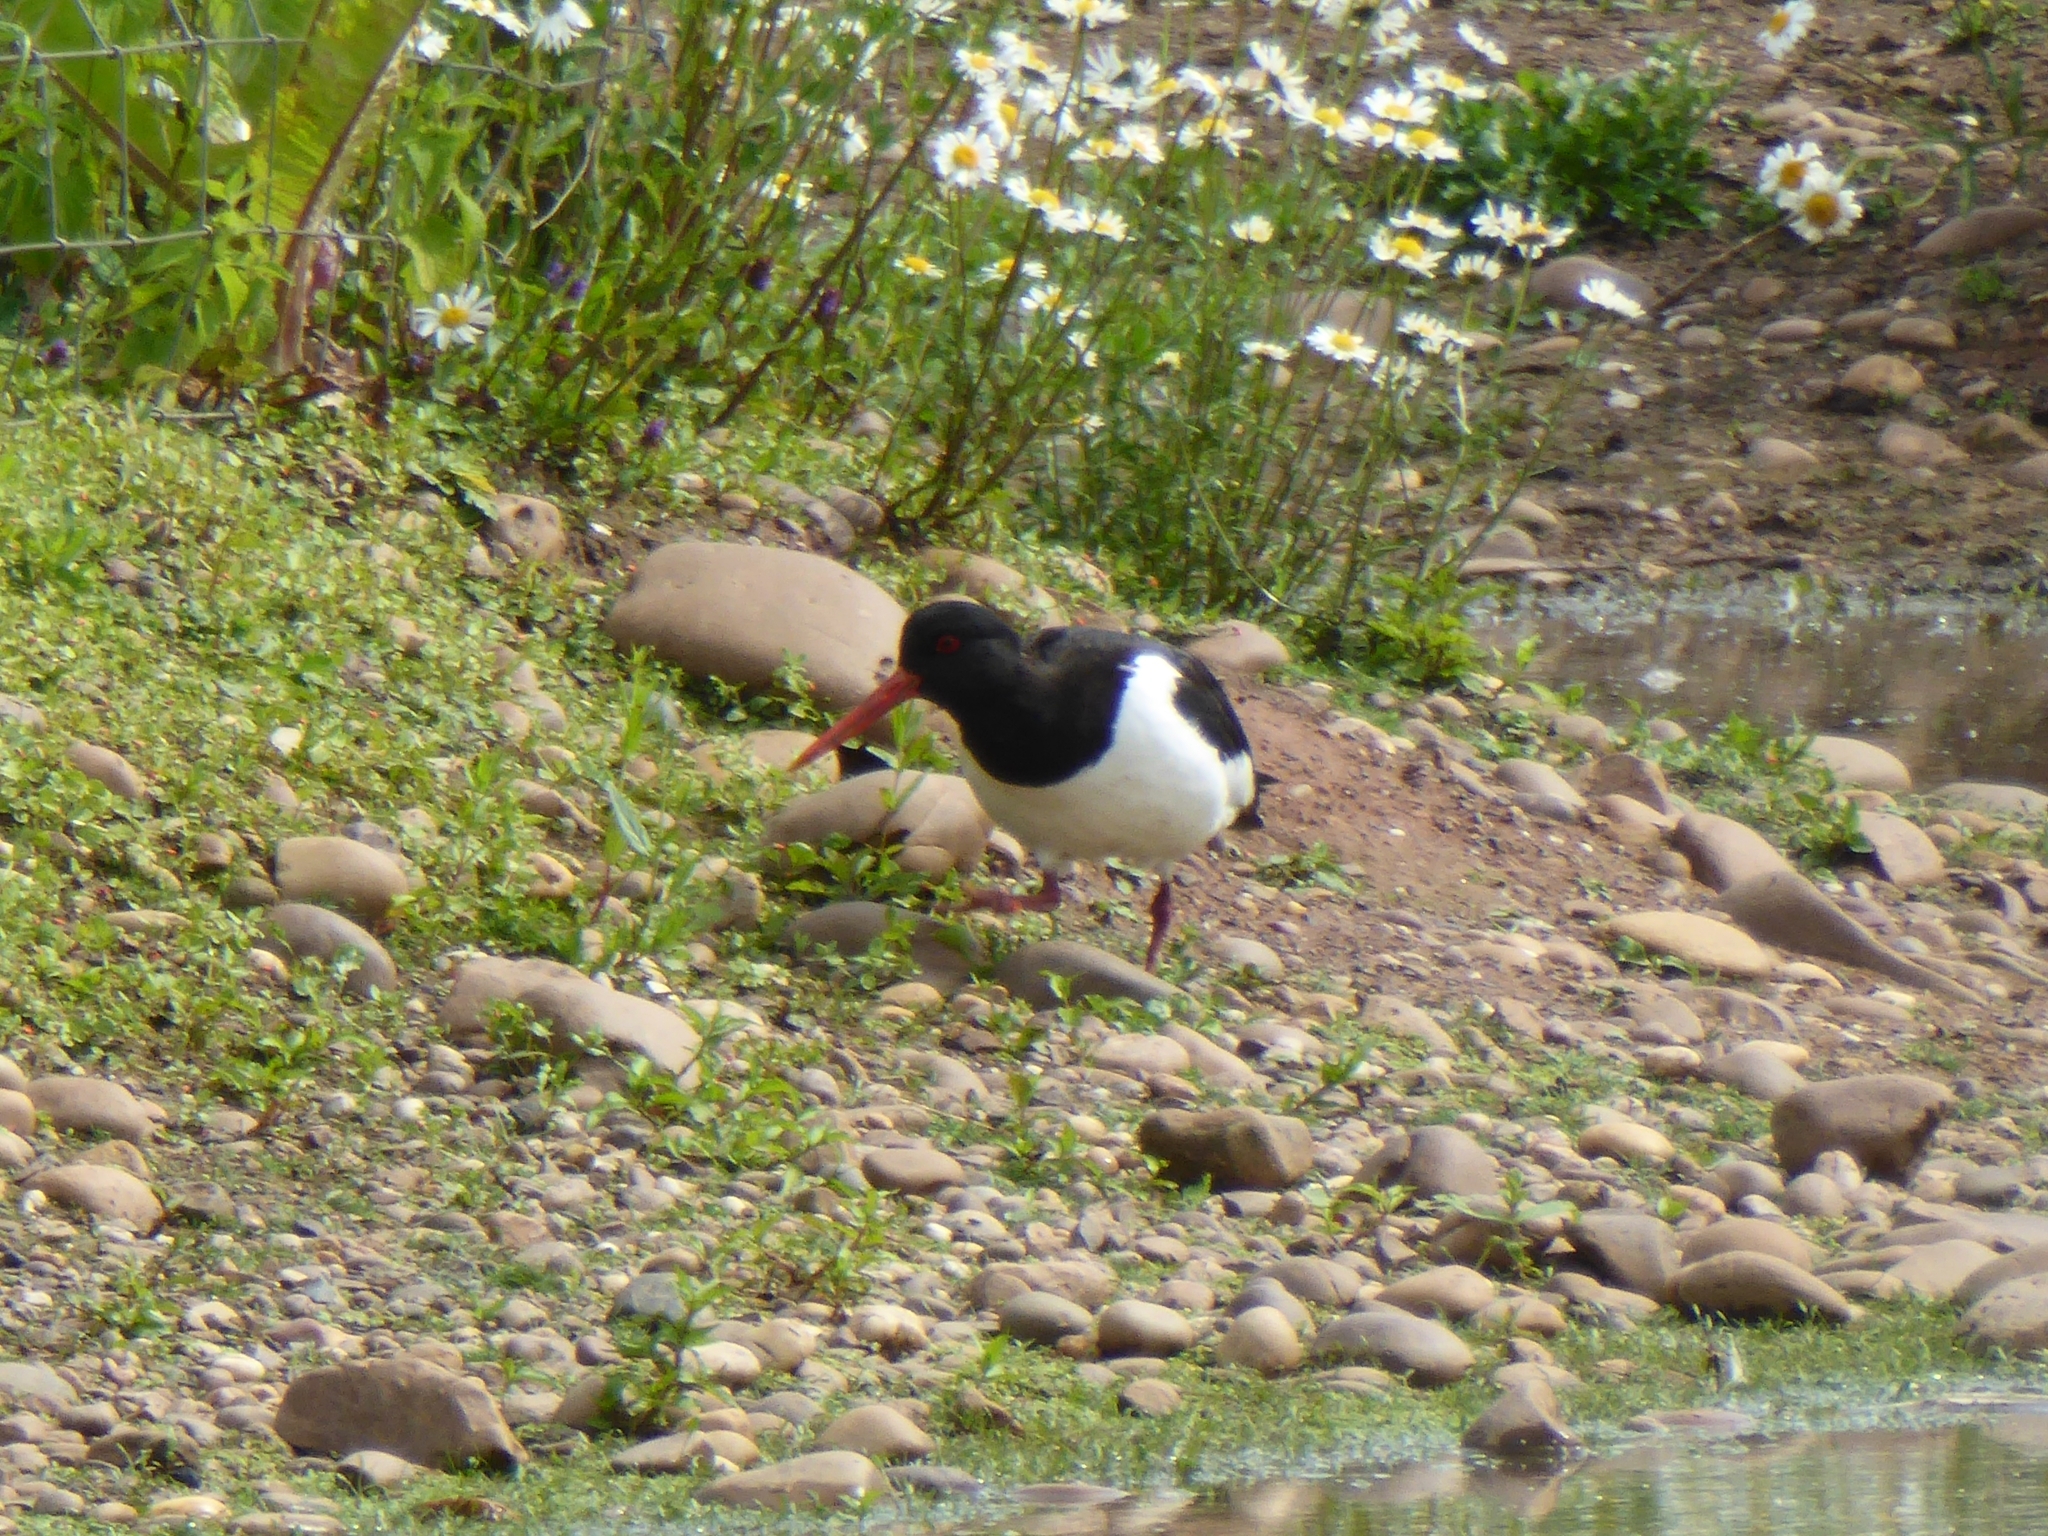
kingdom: Animalia
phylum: Chordata
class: Aves
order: Charadriiformes
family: Haematopodidae
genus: Haematopus
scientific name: Haematopus ostralegus
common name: Eurasian oystercatcher
